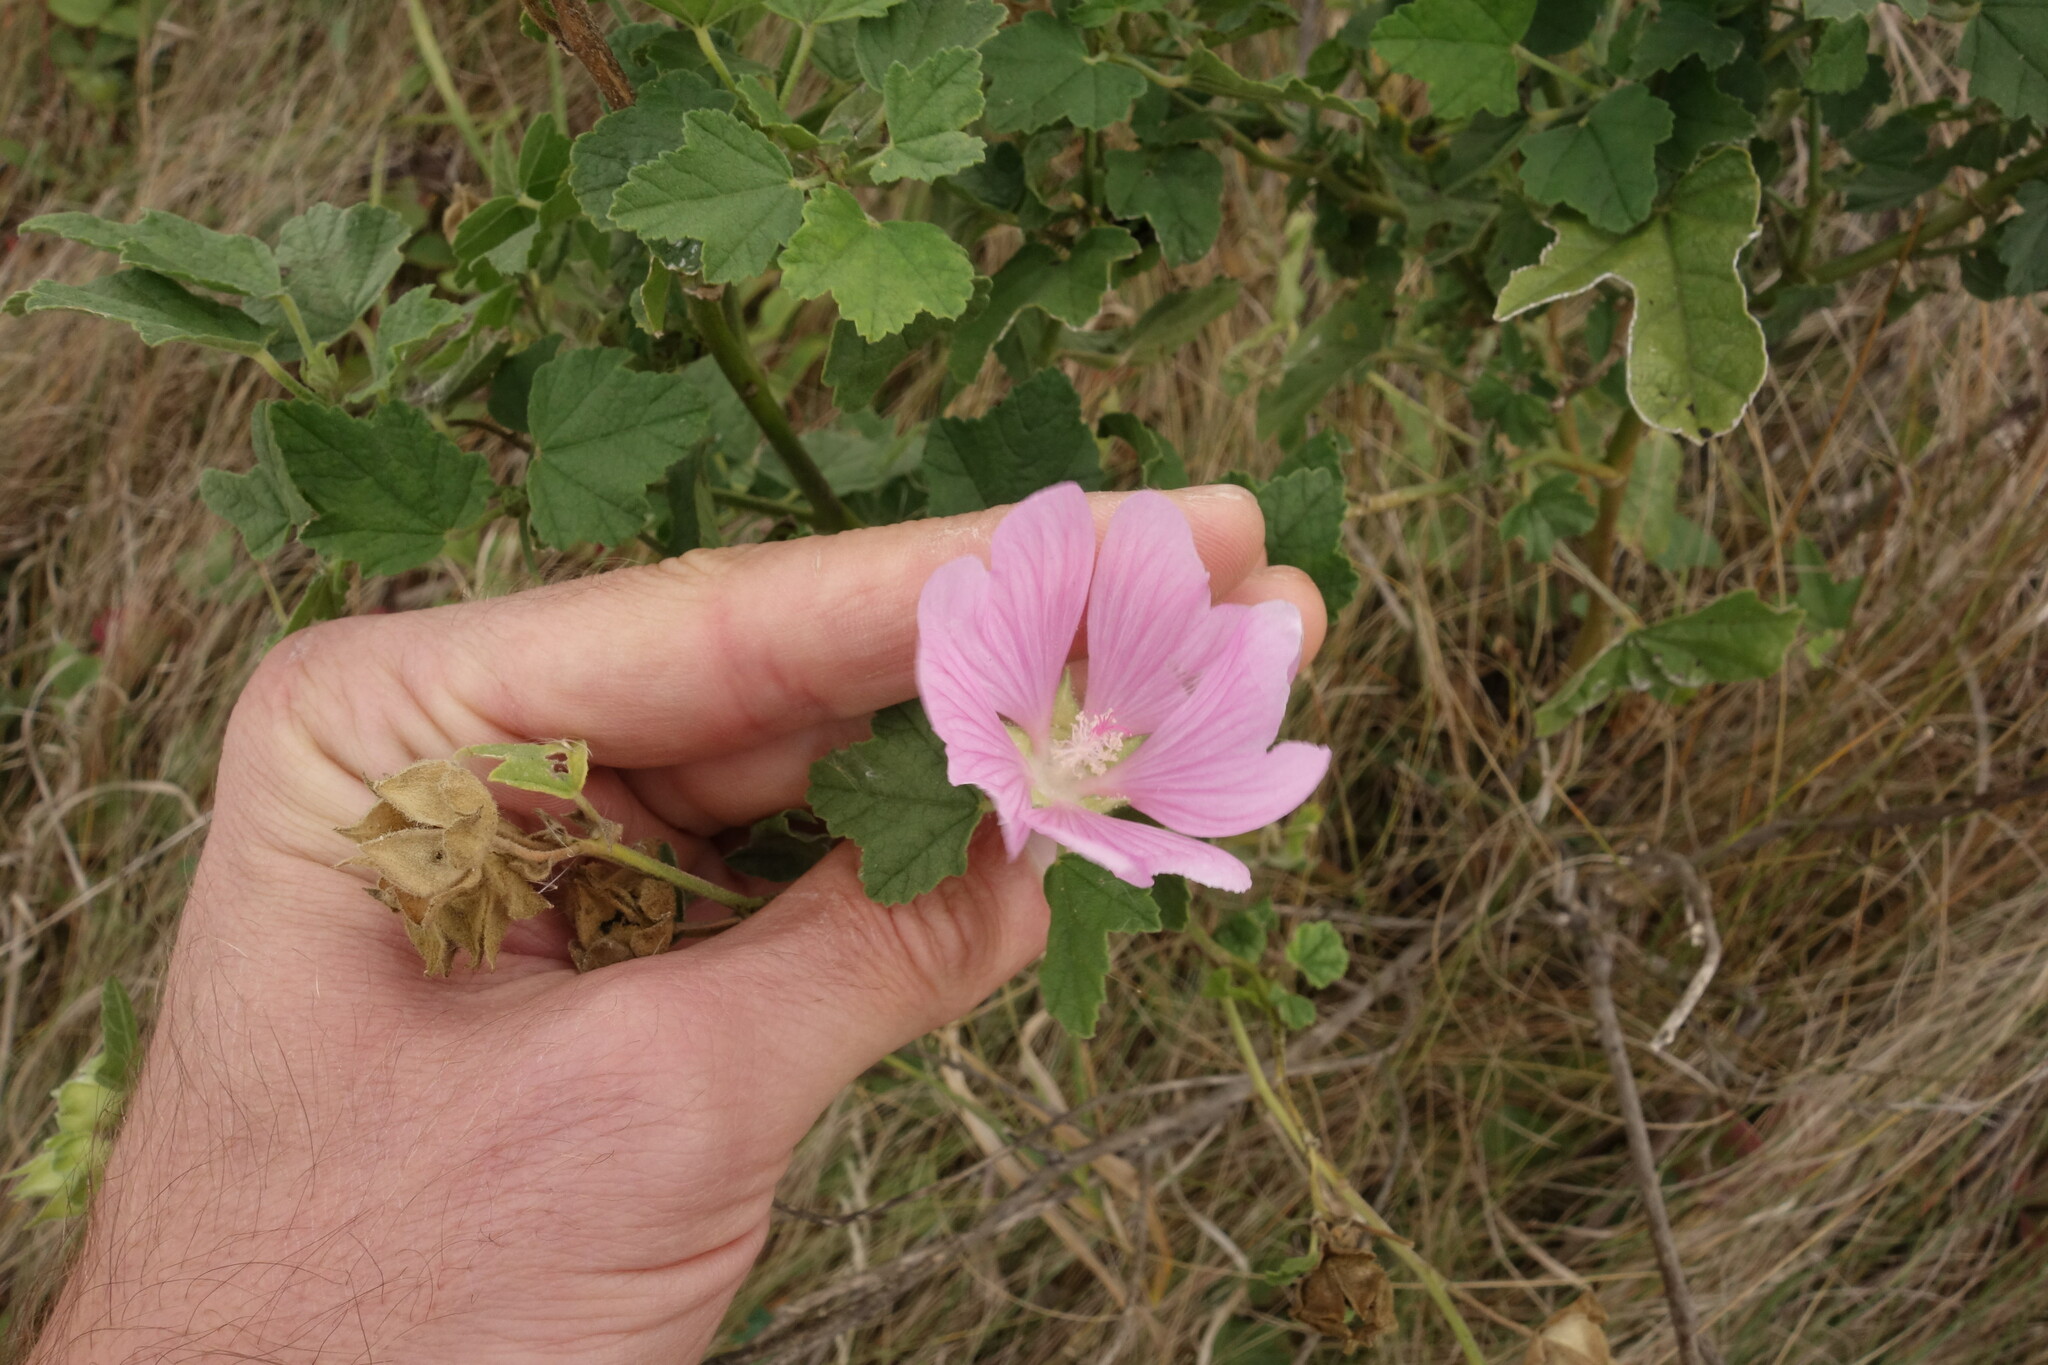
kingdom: Plantae
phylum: Tracheophyta
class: Magnoliopsida
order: Malvales
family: Malvaceae
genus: Malva
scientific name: Malva thuringiaca
